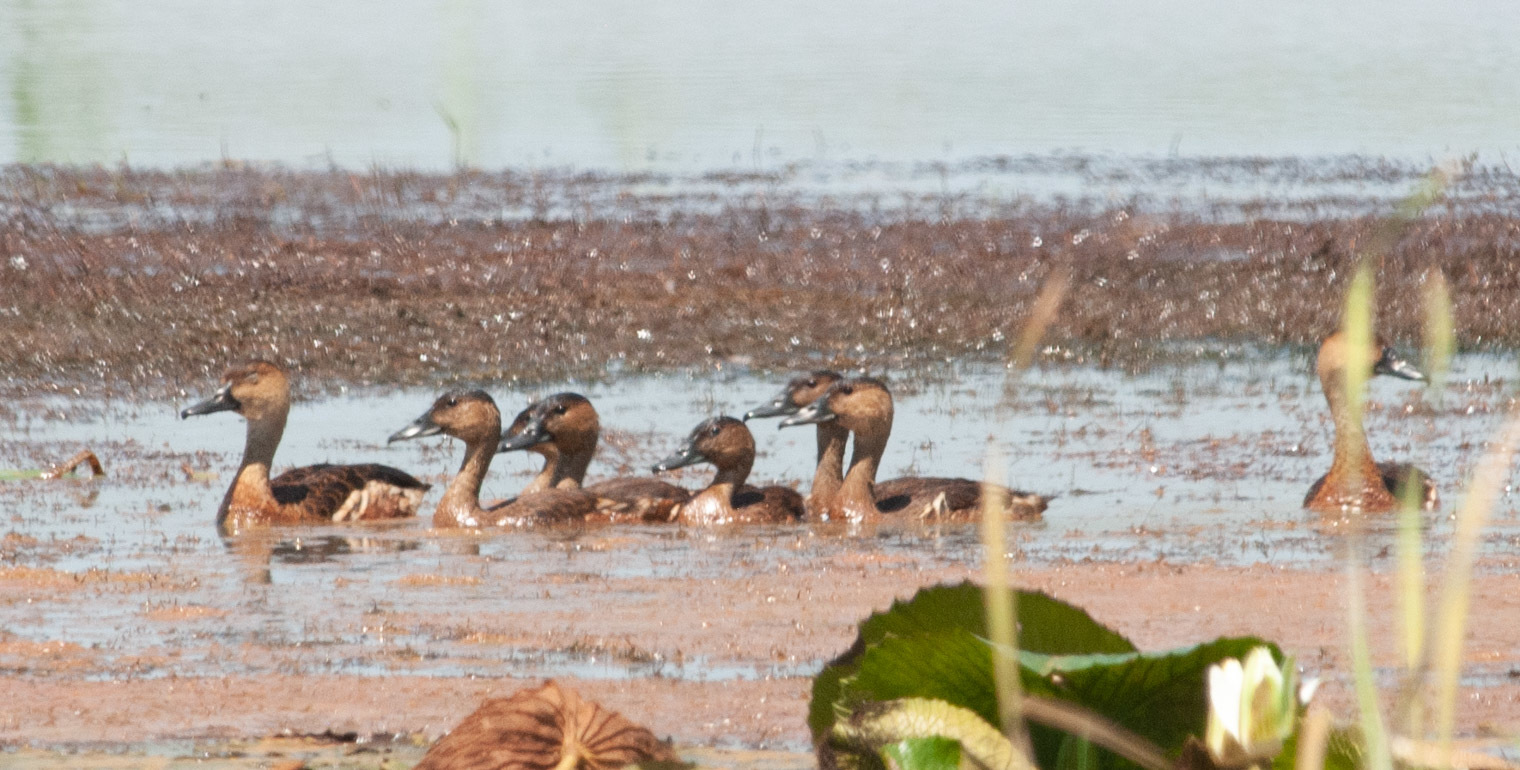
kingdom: Animalia
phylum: Chordata
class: Aves
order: Anseriformes
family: Anatidae
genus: Dendrocygna
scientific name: Dendrocygna arcuata
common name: Wandering whistling-duck
